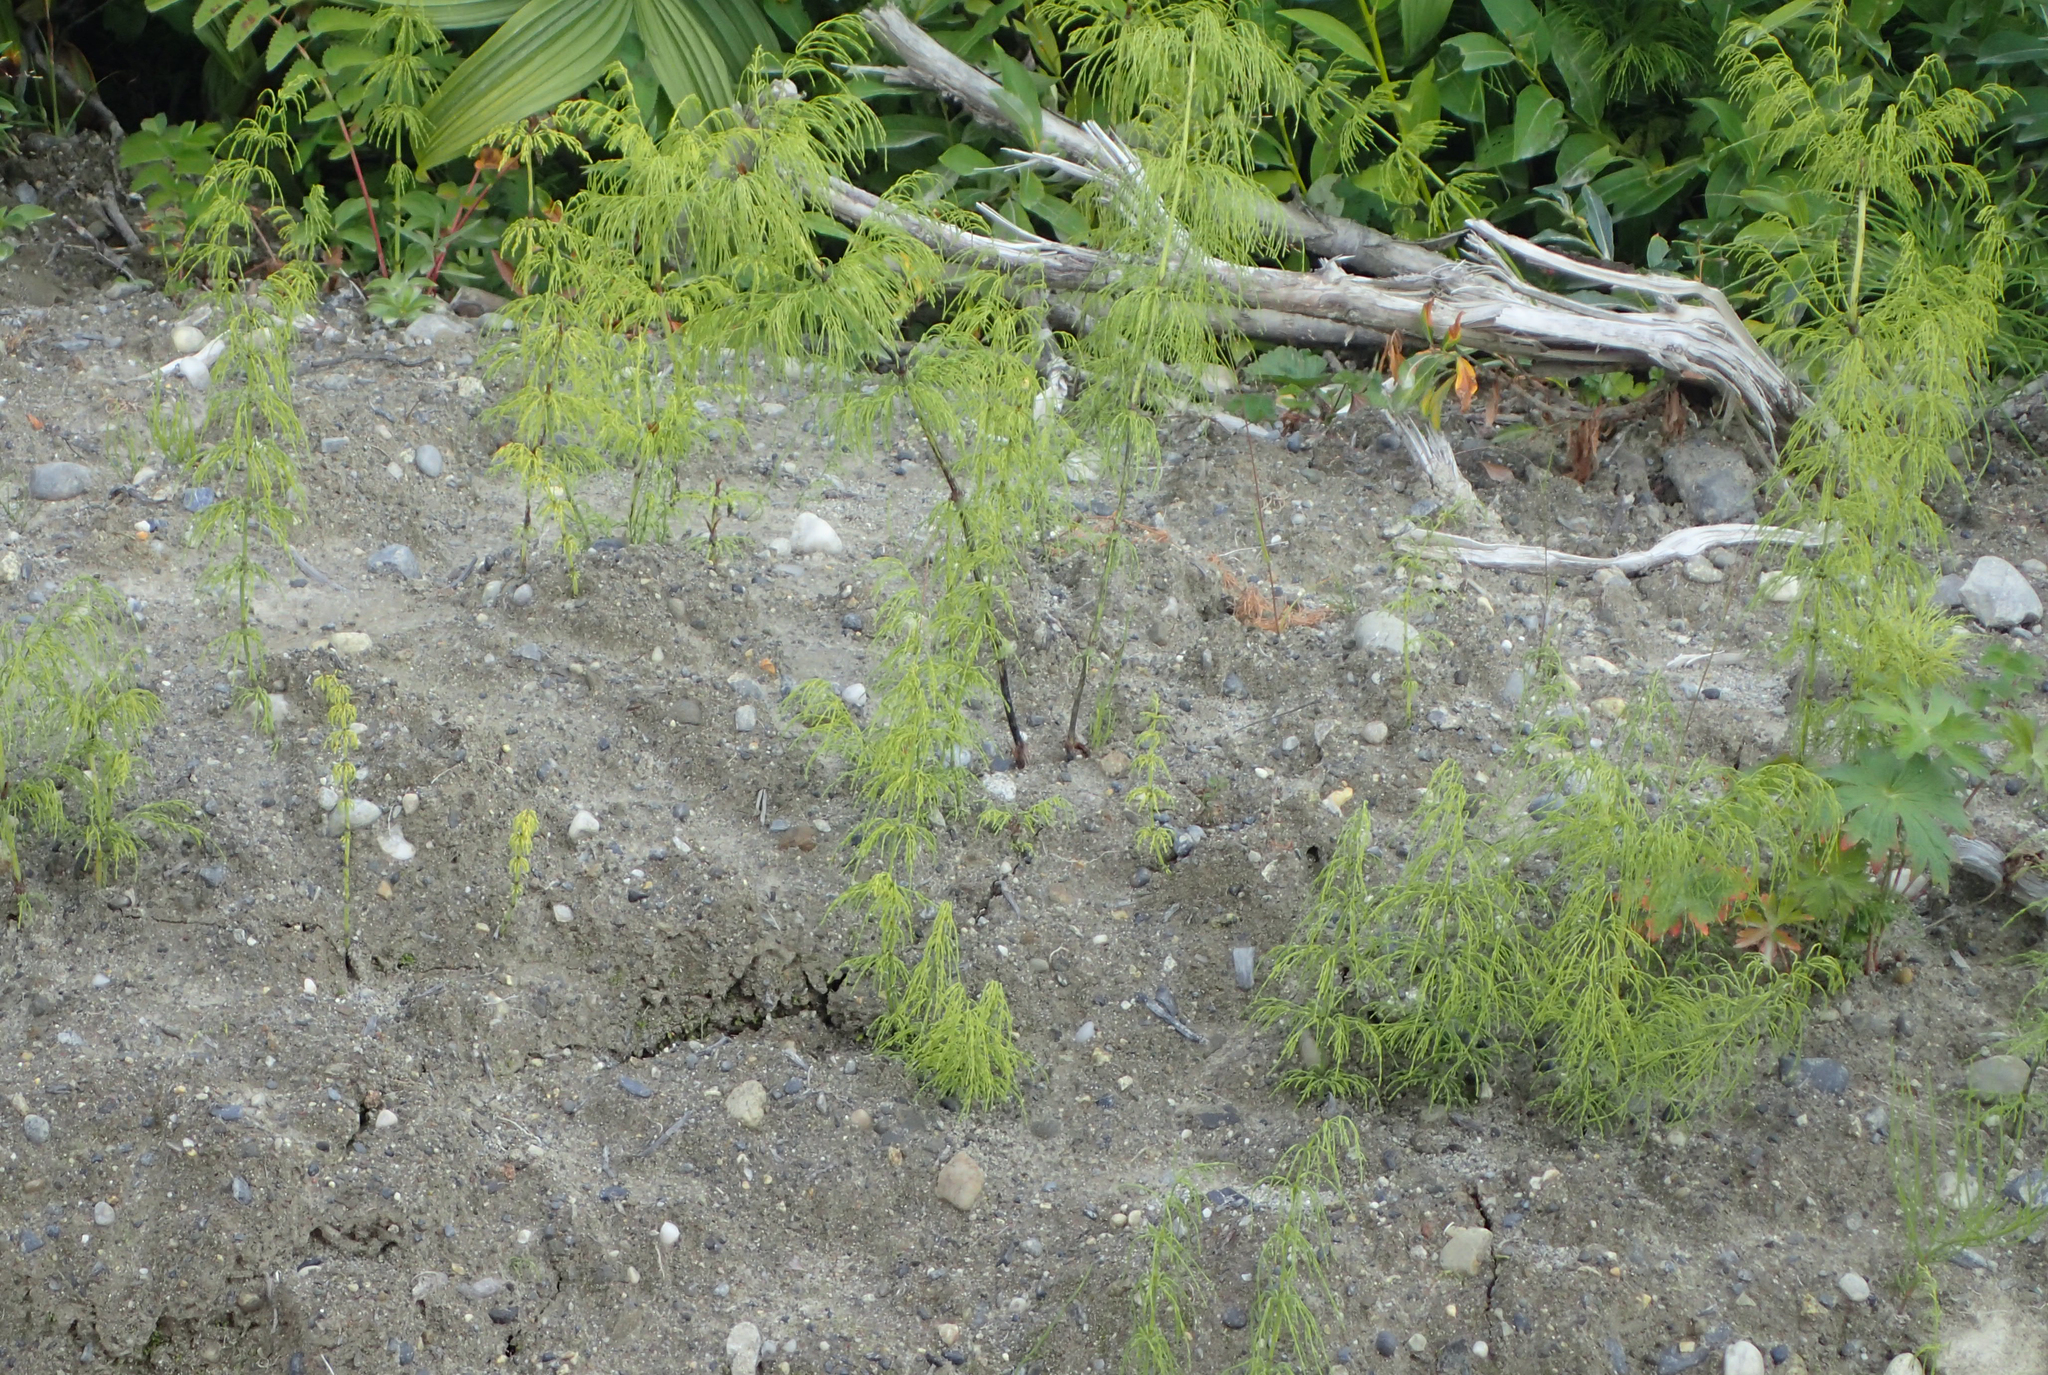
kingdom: Plantae
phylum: Tracheophyta
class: Polypodiopsida
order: Equisetales
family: Equisetaceae
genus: Equisetum
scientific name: Equisetum sylvaticum
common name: Wood horsetail
